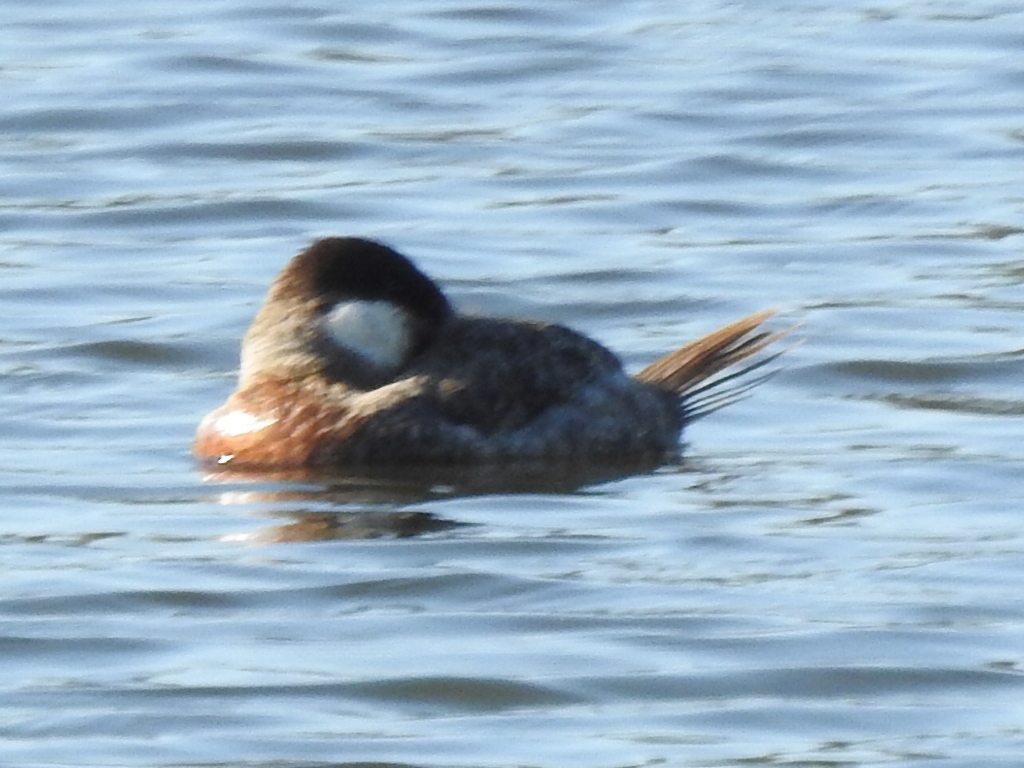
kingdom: Animalia
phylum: Chordata
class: Aves
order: Anseriformes
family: Anatidae
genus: Oxyura
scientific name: Oxyura jamaicensis
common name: Ruddy duck
